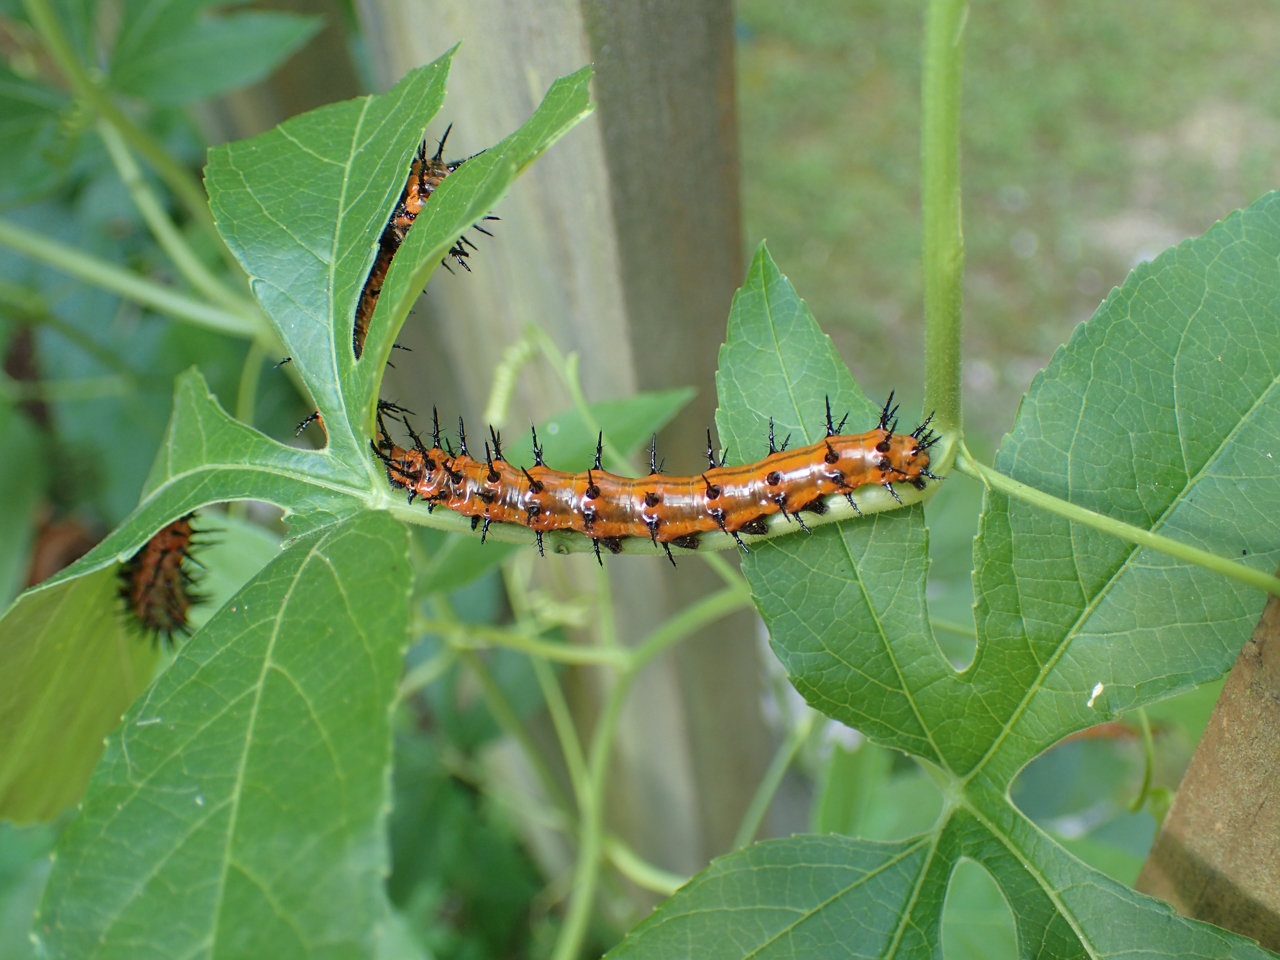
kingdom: Animalia
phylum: Arthropoda
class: Insecta
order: Lepidoptera
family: Nymphalidae
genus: Dione
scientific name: Dione vanillae
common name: Gulf fritillary
